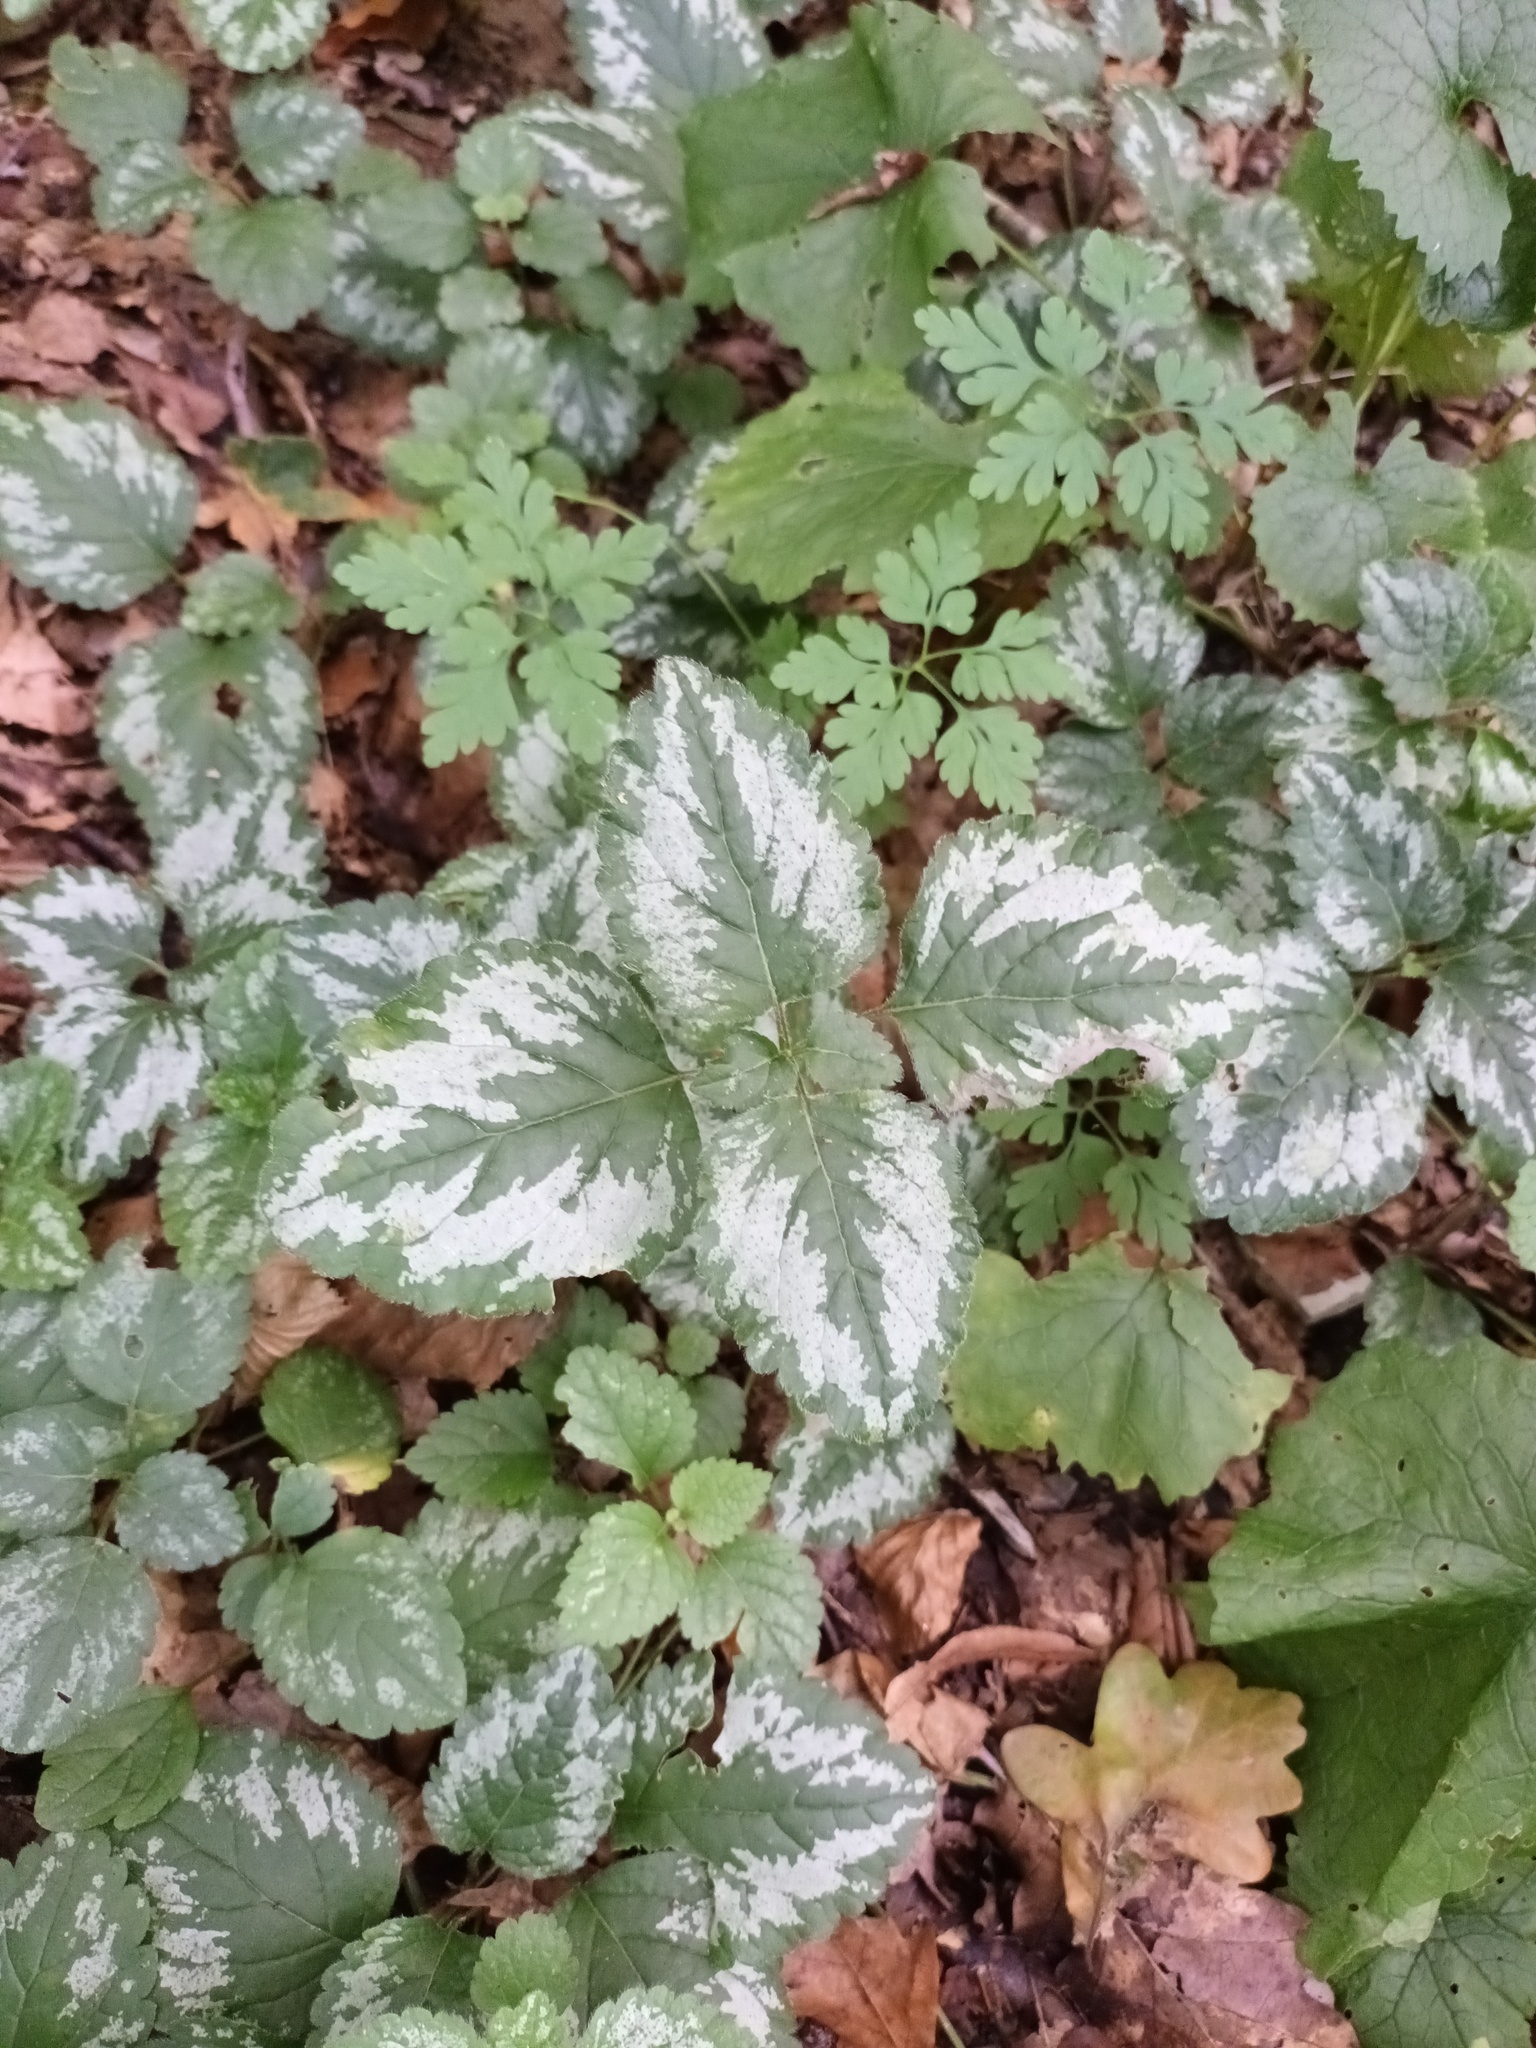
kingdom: Plantae
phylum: Tracheophyta
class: Magnoliopsida
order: Lamiales
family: Lamiaceae
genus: Lamium
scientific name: Lamium galeobdolon
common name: Yellow archangel
